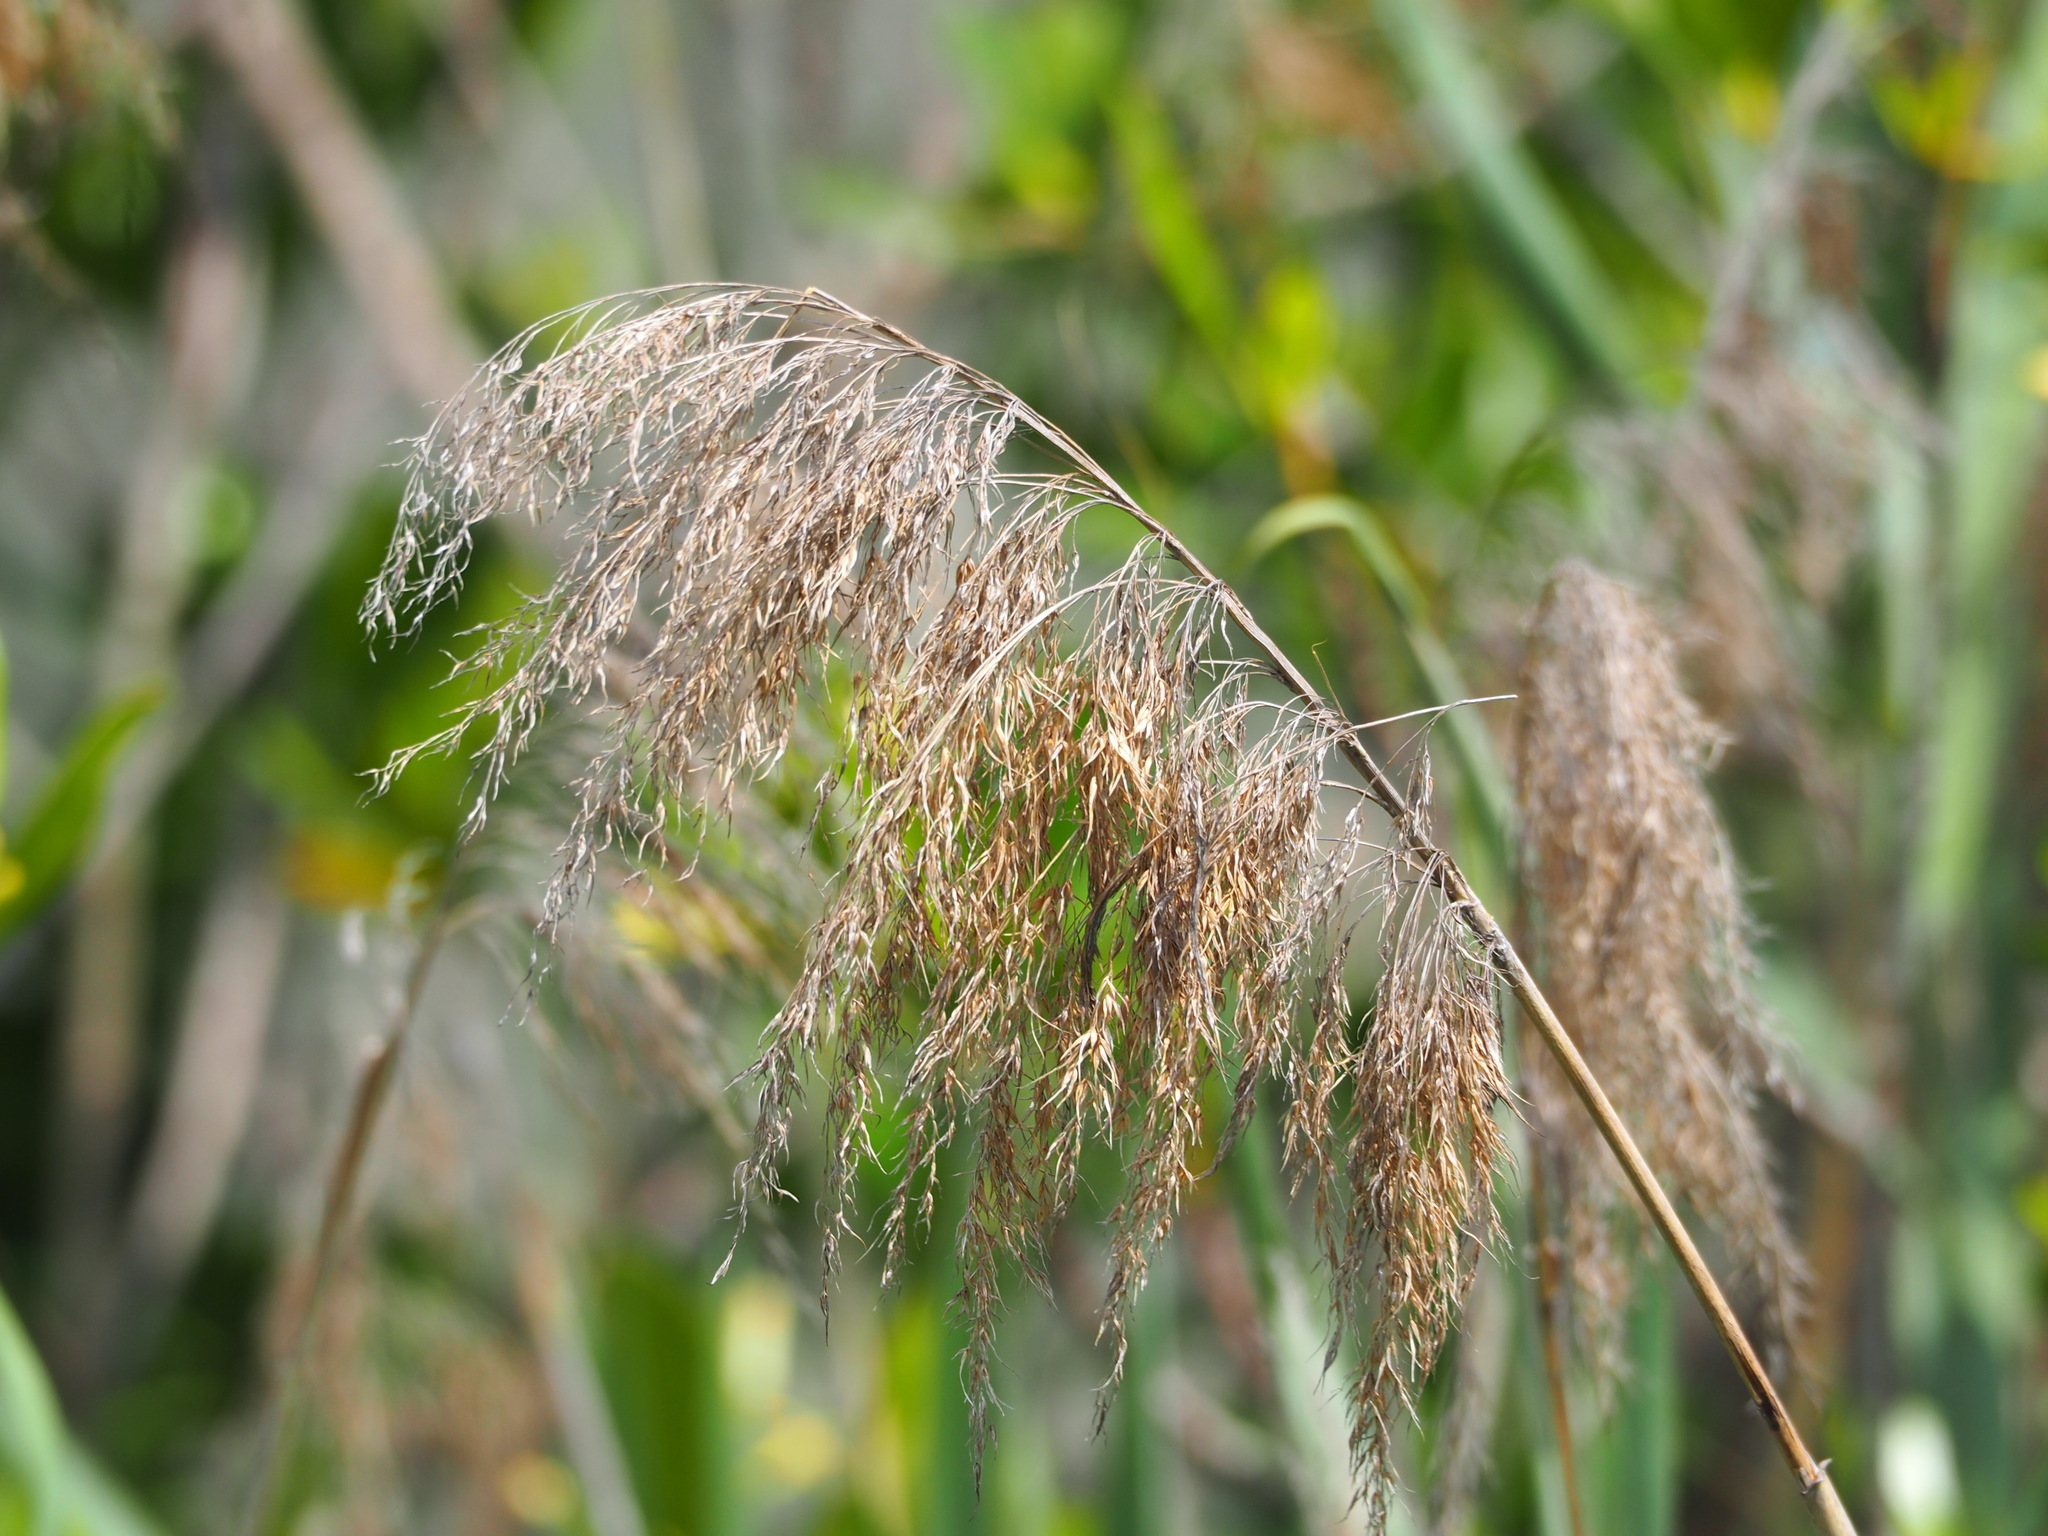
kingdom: Plantae
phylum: Tracheophyta
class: Liliopsida
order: Poales
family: Poaceae
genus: Phragmites
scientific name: Phragmites australis
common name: Common reed
